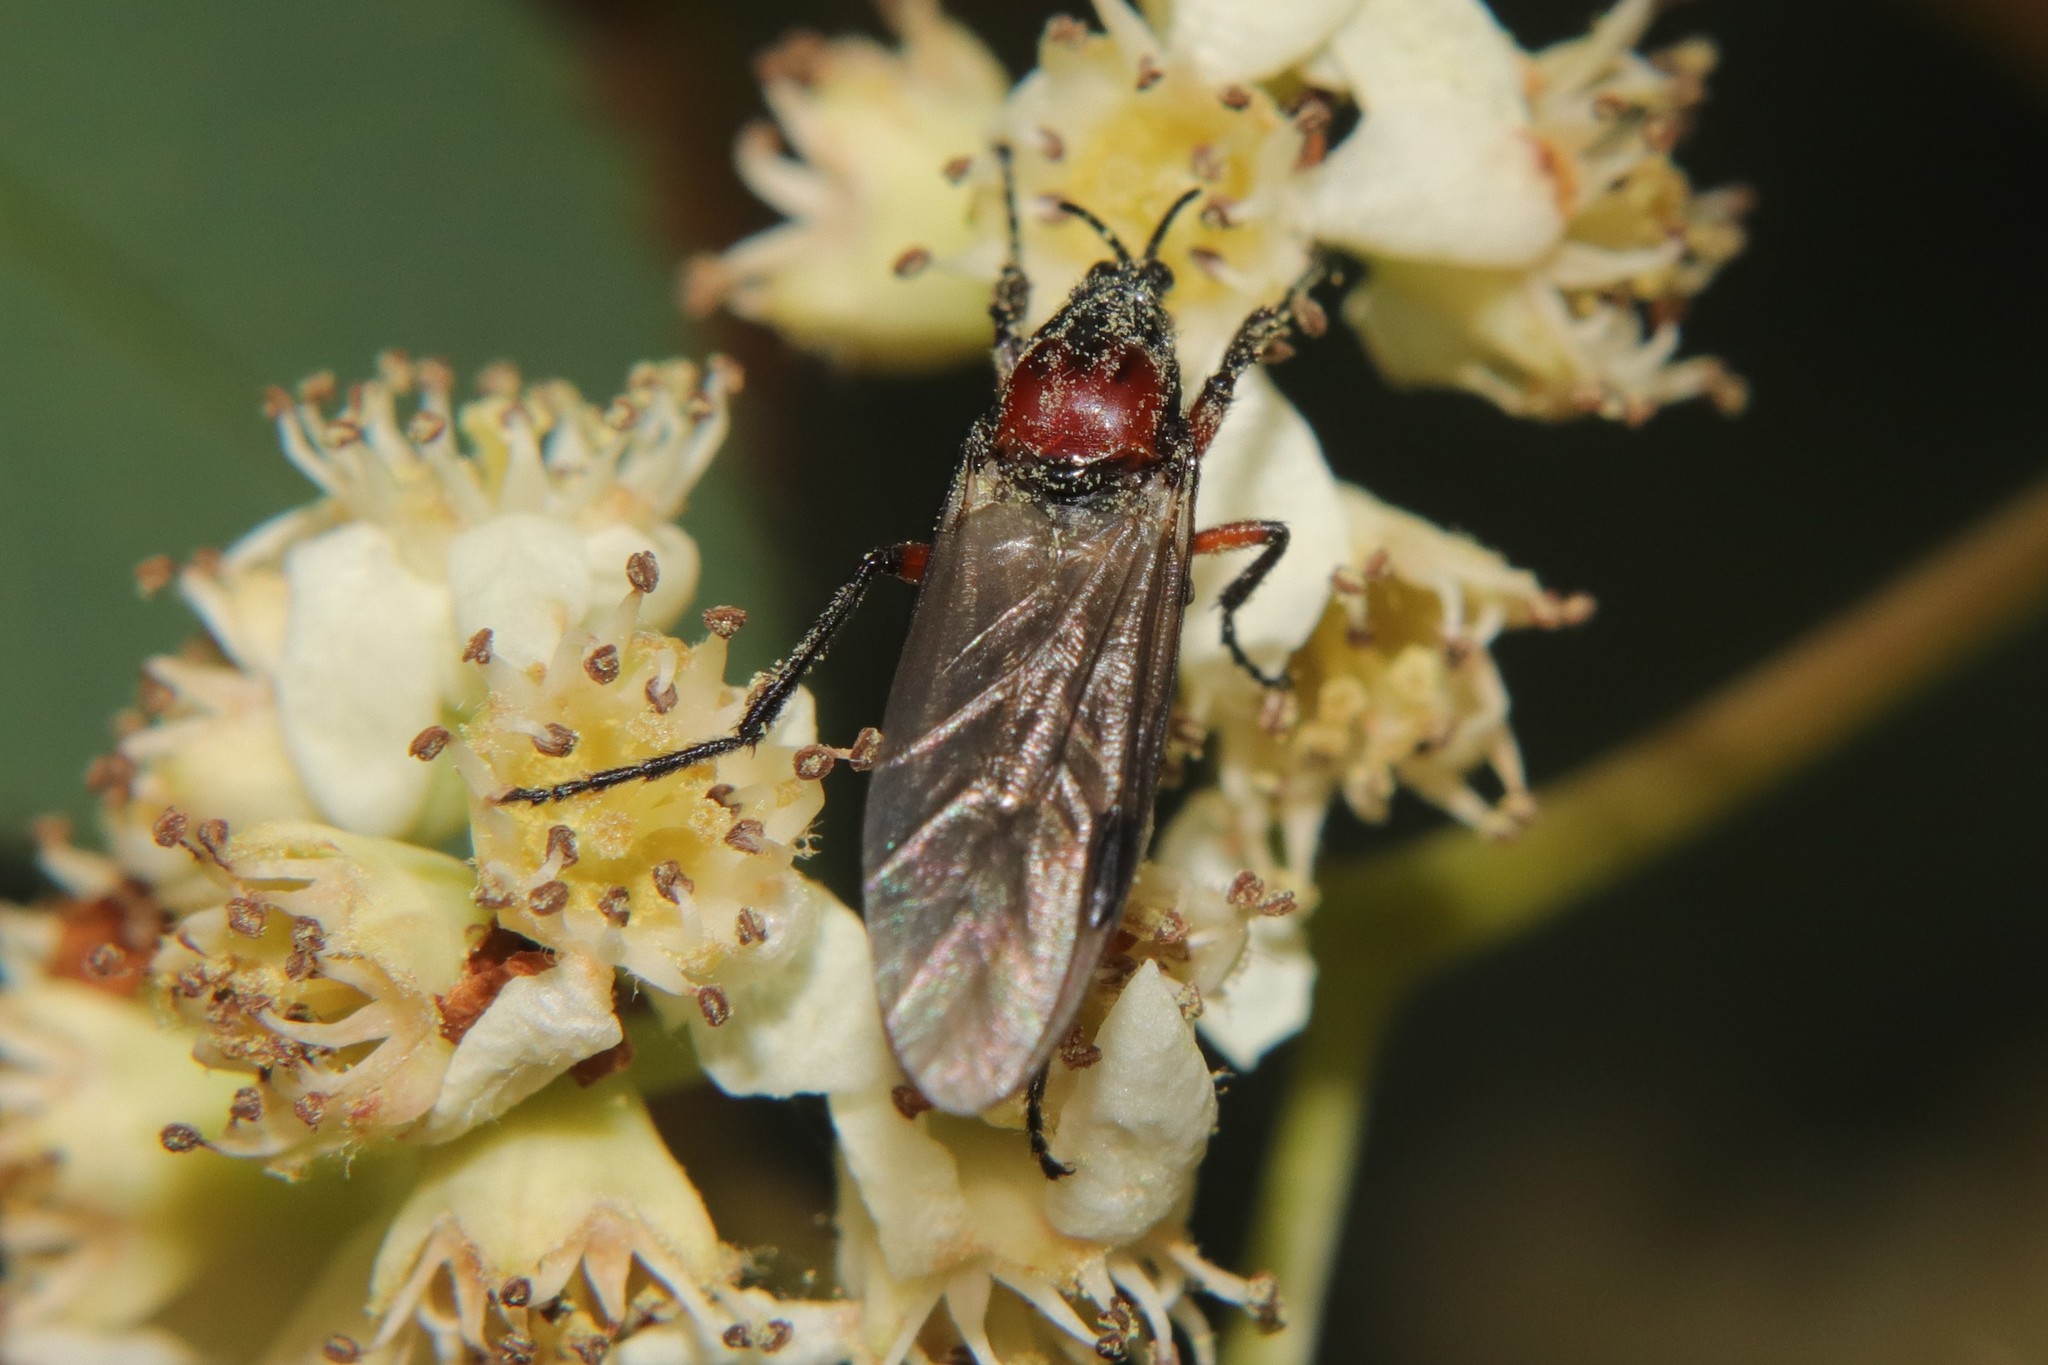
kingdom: Animalia
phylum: Arthropoda
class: Insecta
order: Diptera
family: Bibionidae
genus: Dilophus
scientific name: Dilophus nigrostigma
